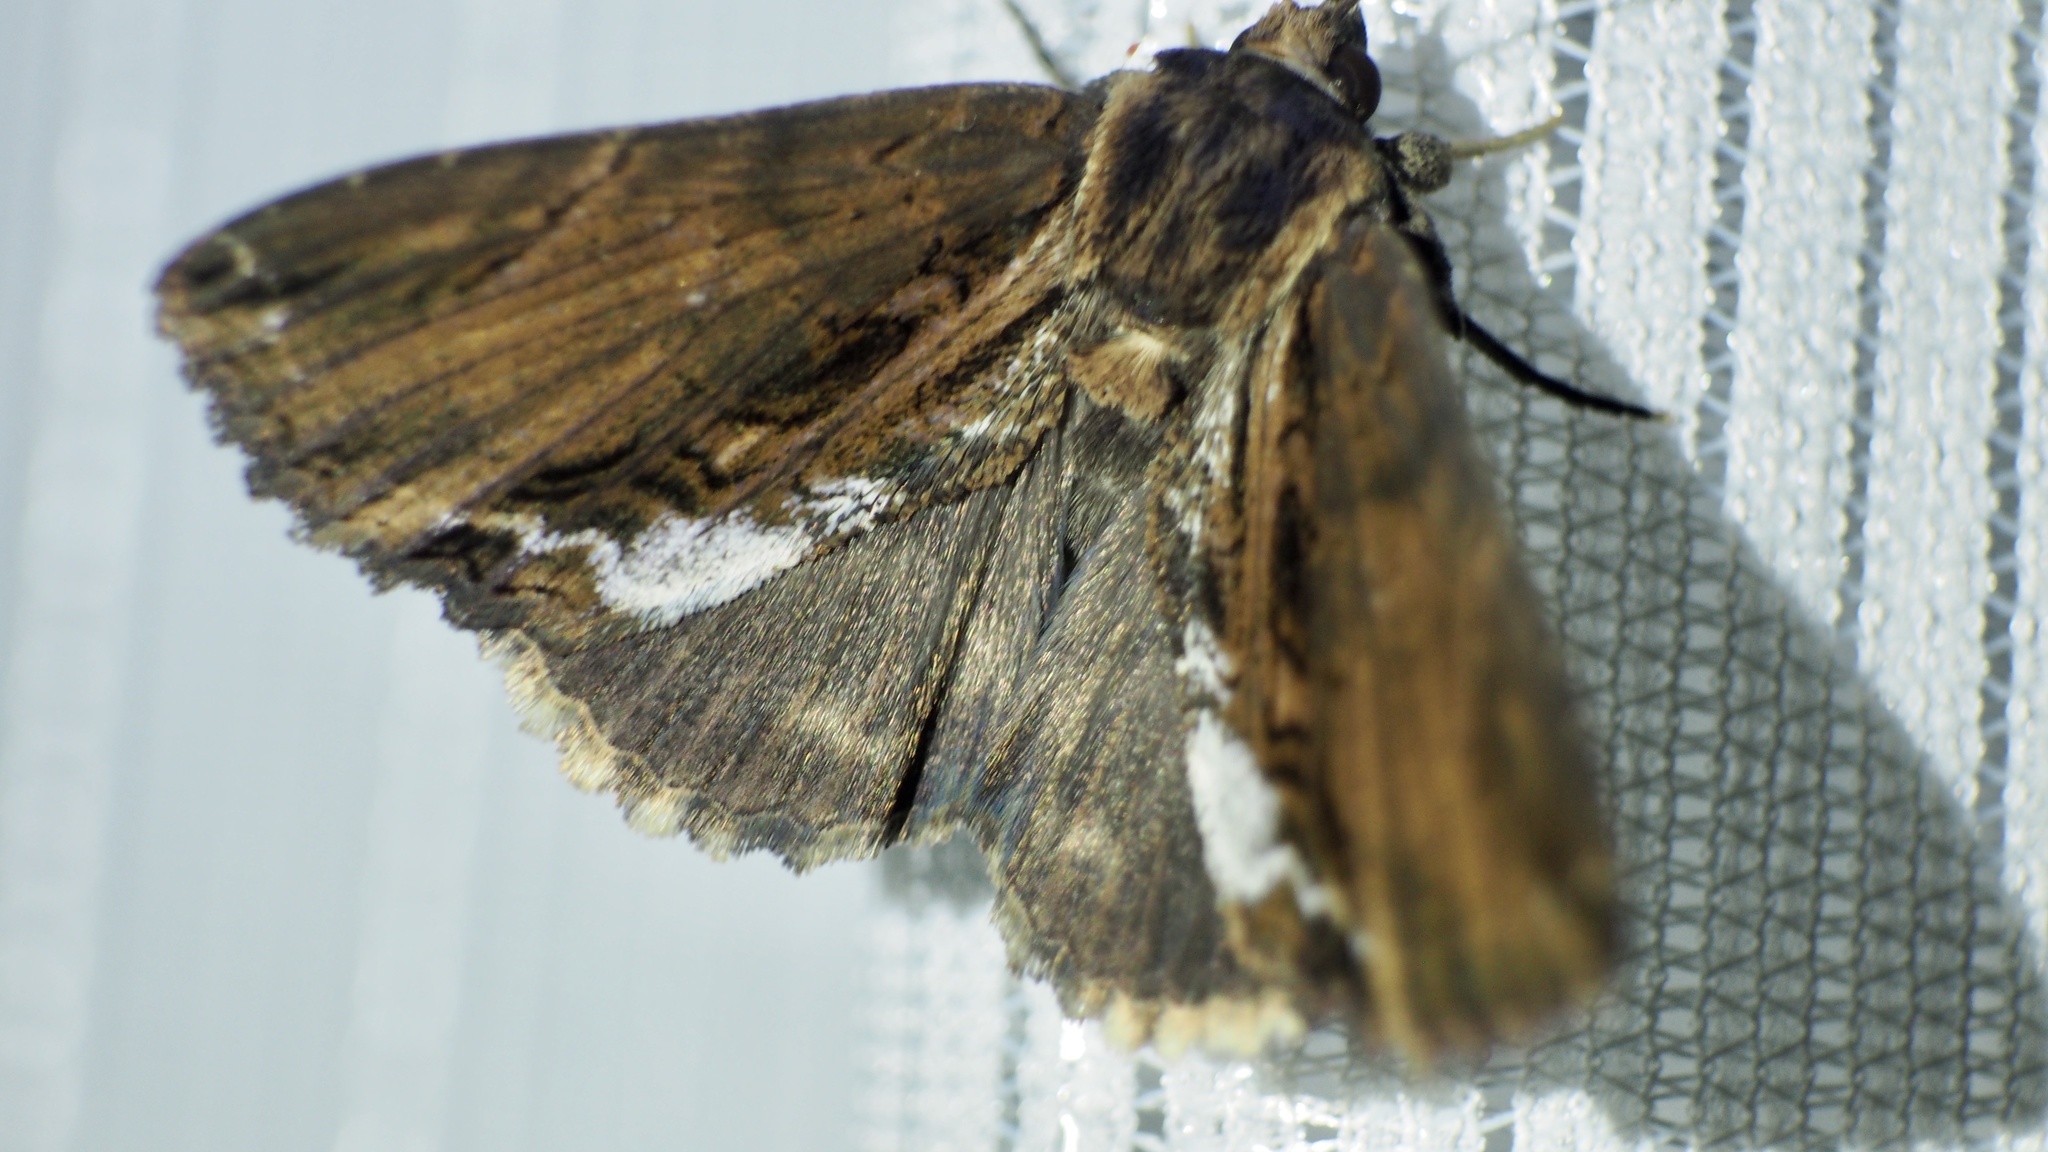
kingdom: Animalia
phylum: Arthropoda
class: Insecta
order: Lepidoptera
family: Erebidae
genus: Ercheia
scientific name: Ercheia umbrosa
